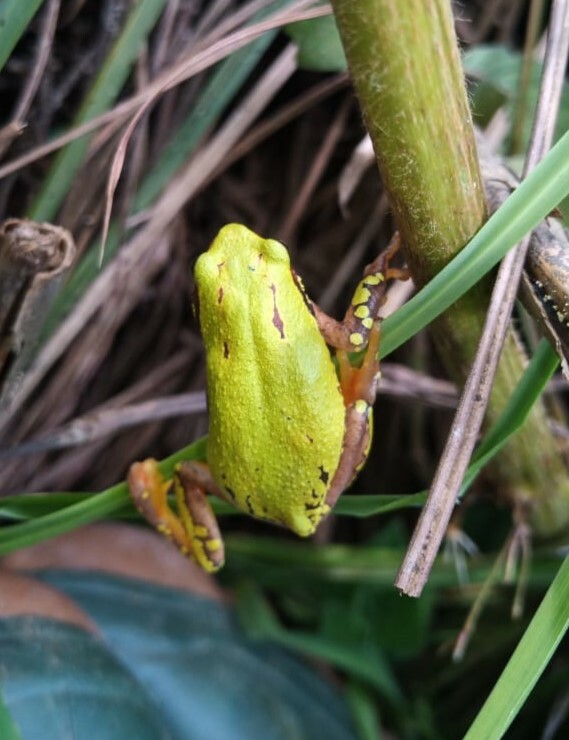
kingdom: Animalia
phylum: Chordata
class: Amphibia
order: Anura
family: Hyperoliidae
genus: Hyperolius
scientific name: Hyperolius pictus
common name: Variable reed frog
